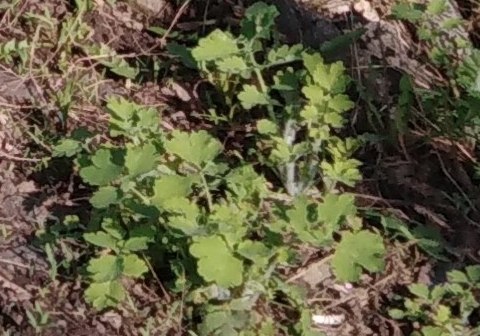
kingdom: Plantae
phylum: Tracheophyta
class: Magnoliopsida
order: Ranunculales
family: Papaveraceae
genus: Chelidonium
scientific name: Chelidonium majus
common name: Greater celandine
